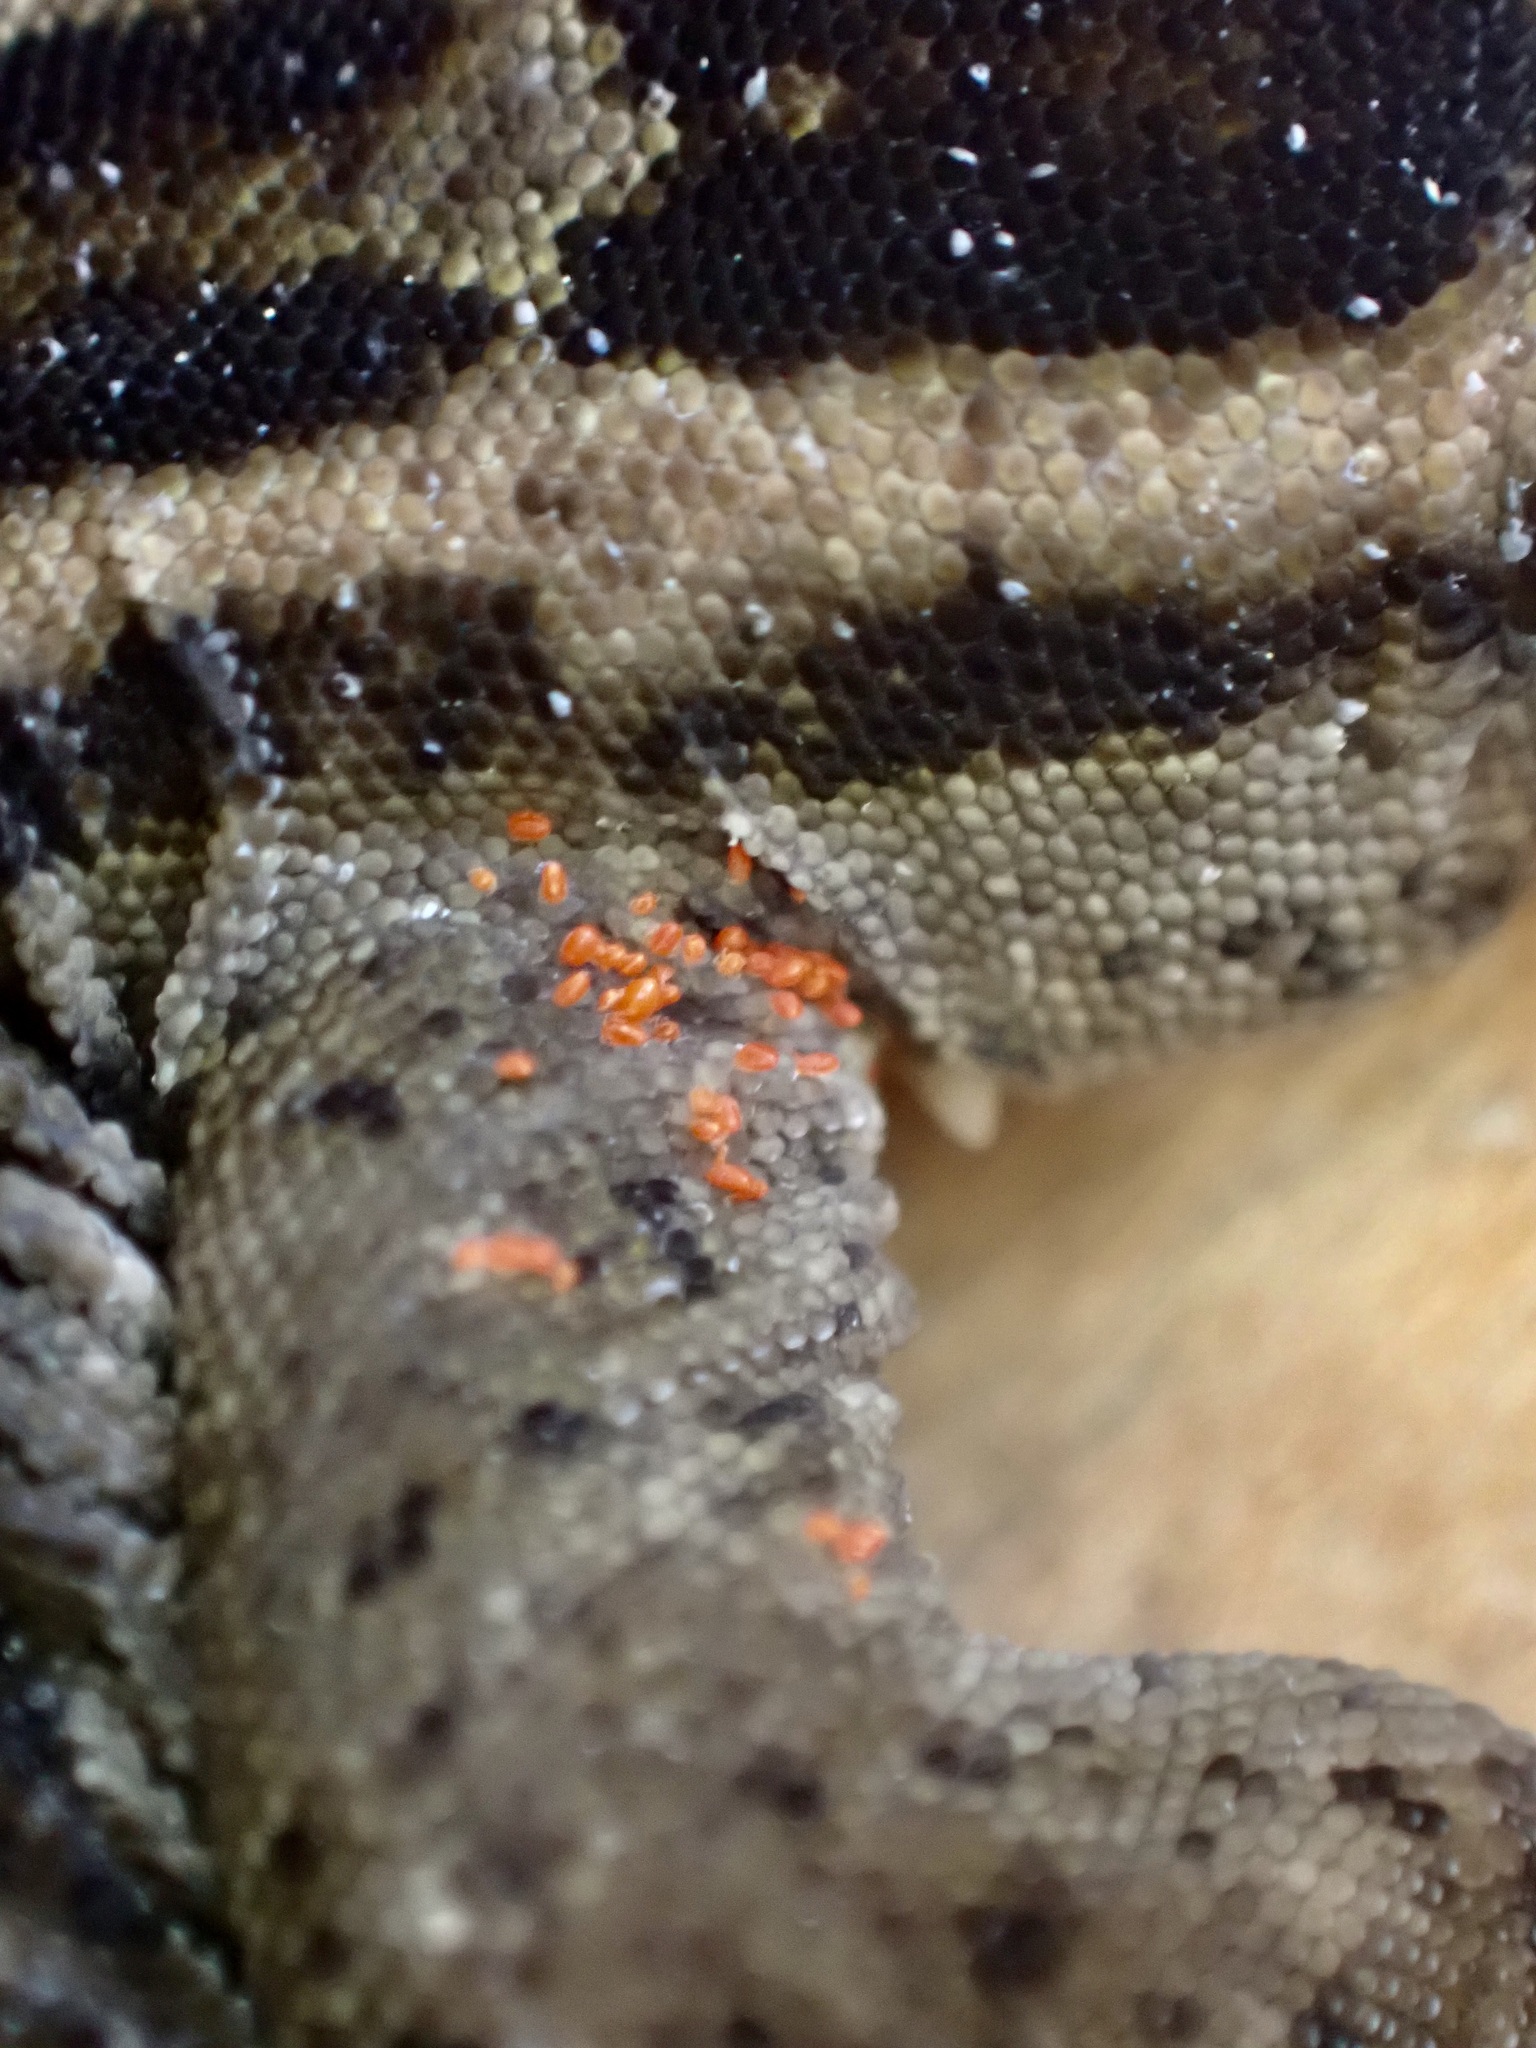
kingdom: Animalia
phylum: Chordata
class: Squamata
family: Diplodactylidae
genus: Woodworthia
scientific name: Woodworthia brunnea
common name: Canterbury gecko
